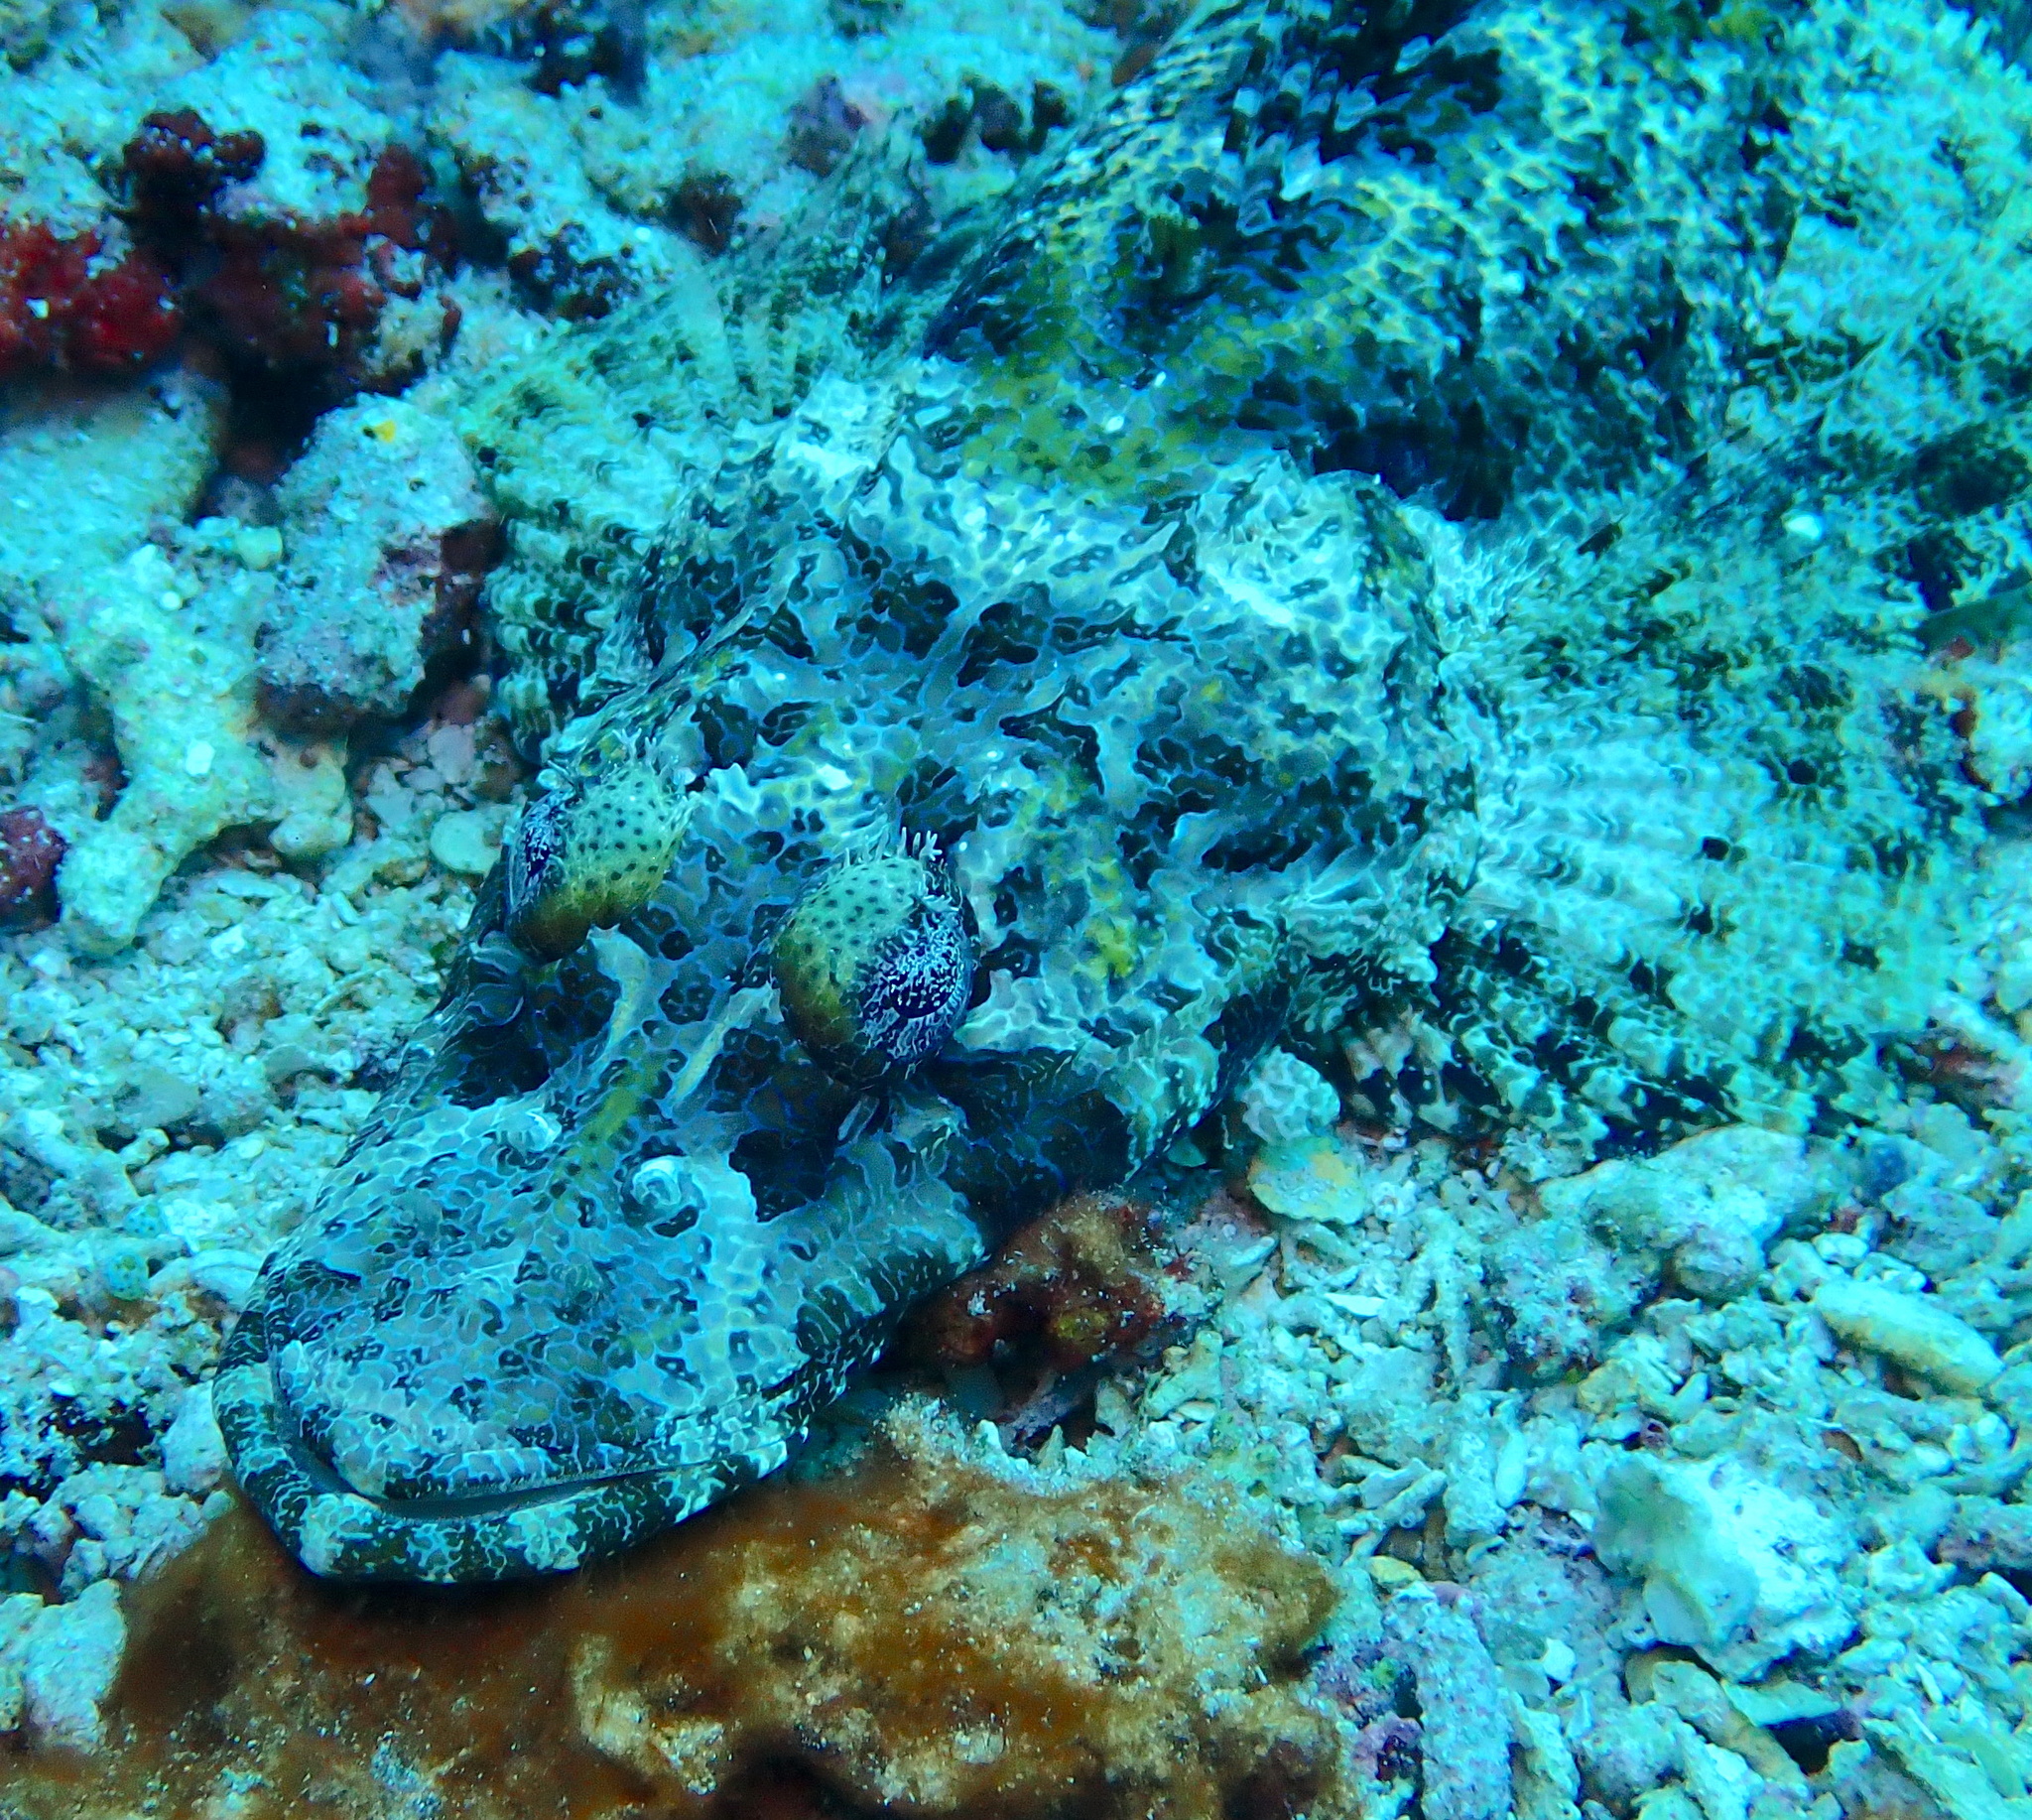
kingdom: Animalia
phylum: Chordata
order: Scorpaeniformes
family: Platycephalidae
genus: Cymbacephalus
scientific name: Cymbacephalus beauforti
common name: Crocodile fish
